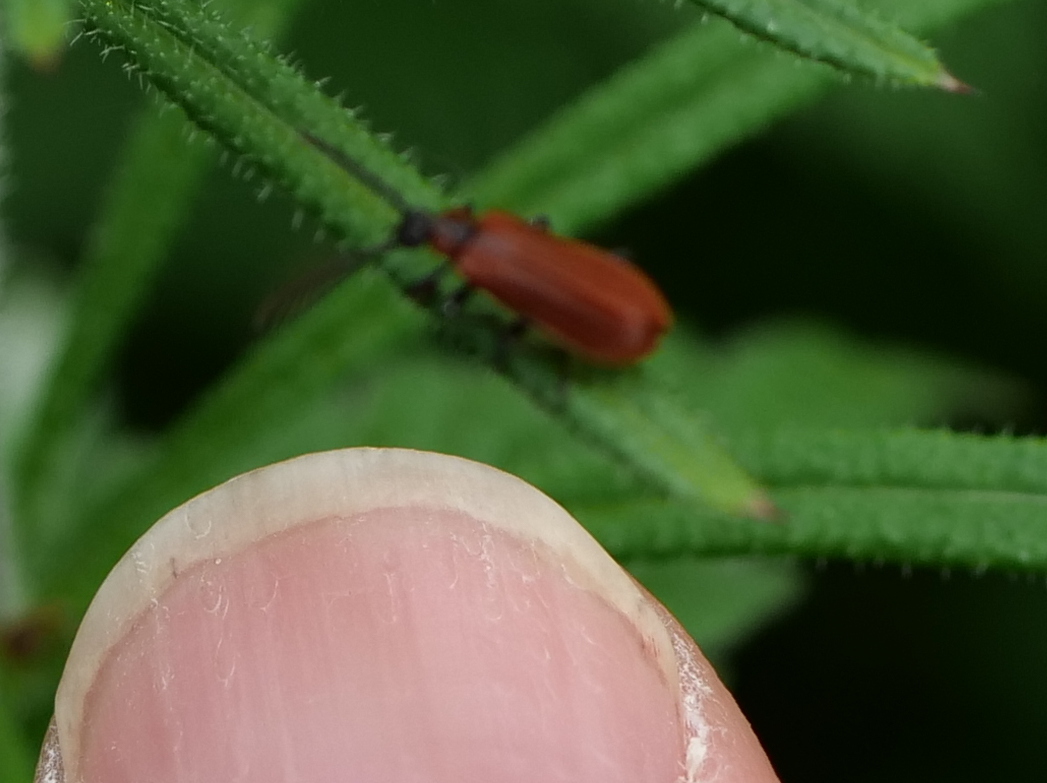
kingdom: Animalia
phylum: Arthropoda
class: Insecta
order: Coleoptera
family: Pyrochroidae
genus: Schizotus
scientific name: Schizotus pectinicornis
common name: Scarce cardinal beetle
